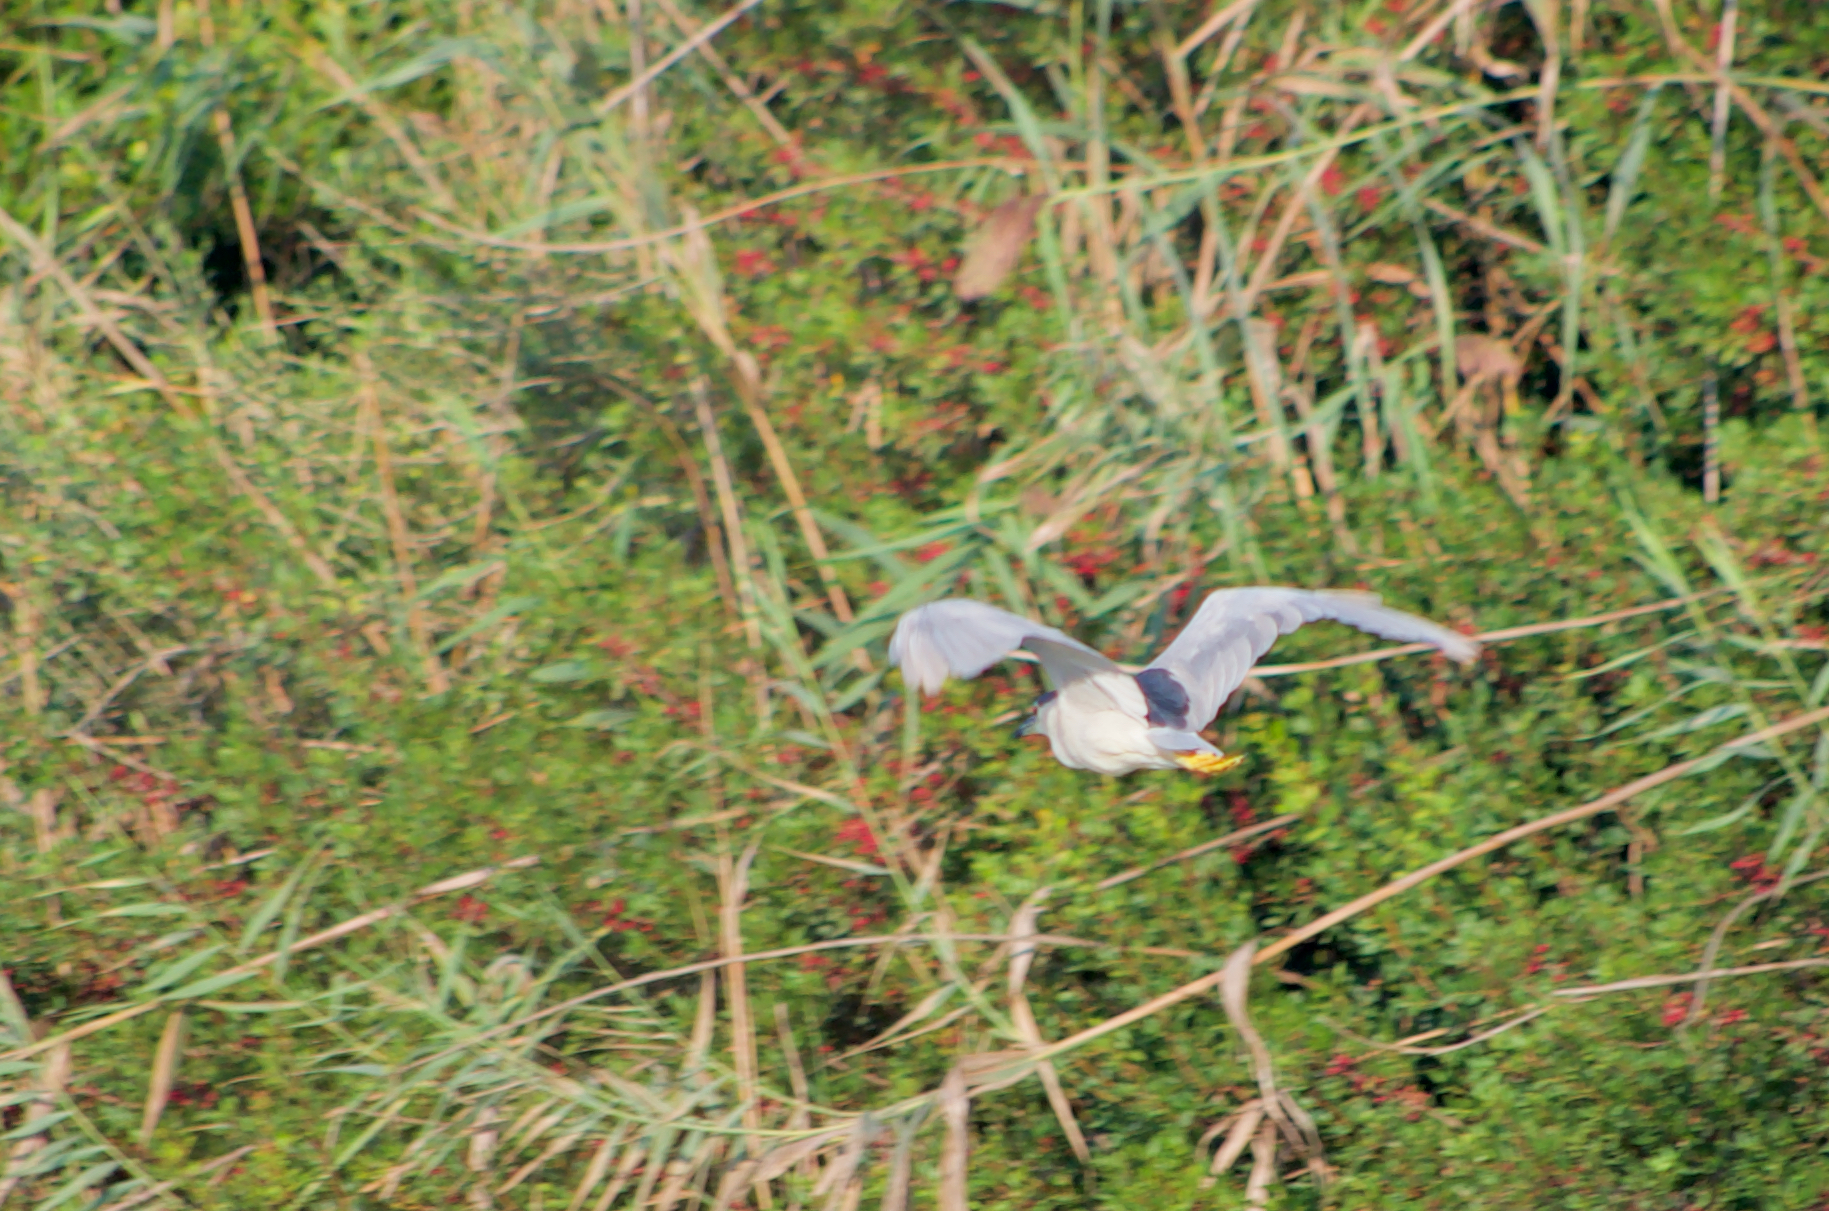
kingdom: Animalia
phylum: Chordata
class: Aves
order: Pelecaniformes
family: Ardeidae
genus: Nycticorax
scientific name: Nycticorax nycticorax
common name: Black-crowned night heron
